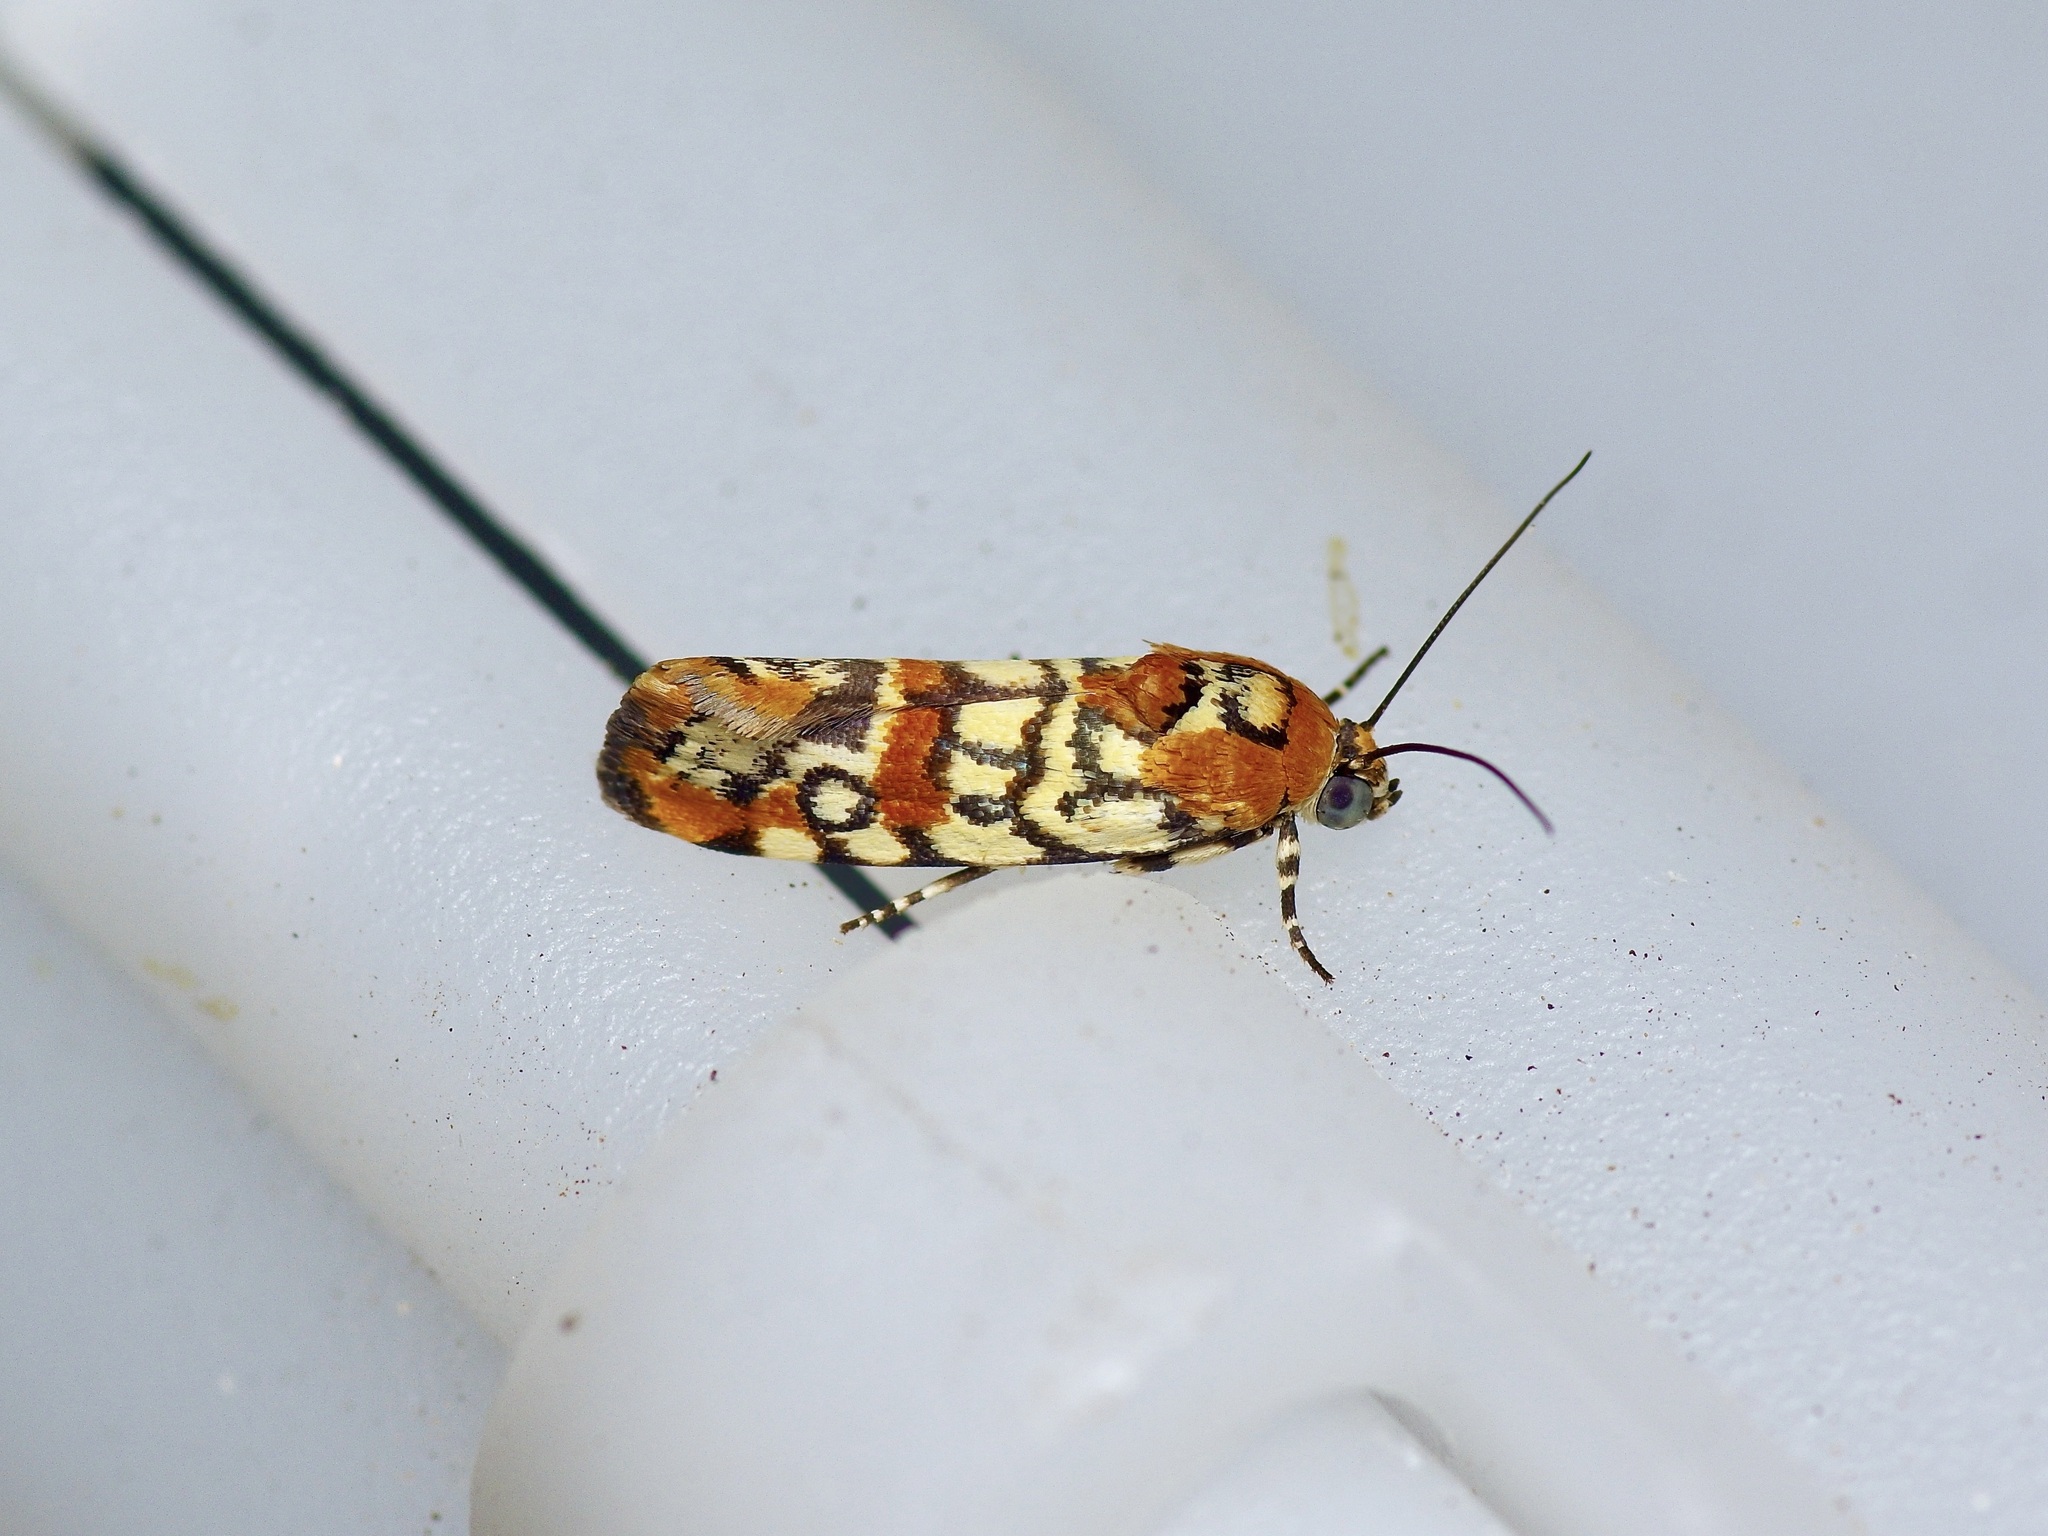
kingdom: Animalia
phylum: Arthropoda
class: Insecta
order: Lepidoptera
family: Noctuidae
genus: Spragueia
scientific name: Spragueia guttata
